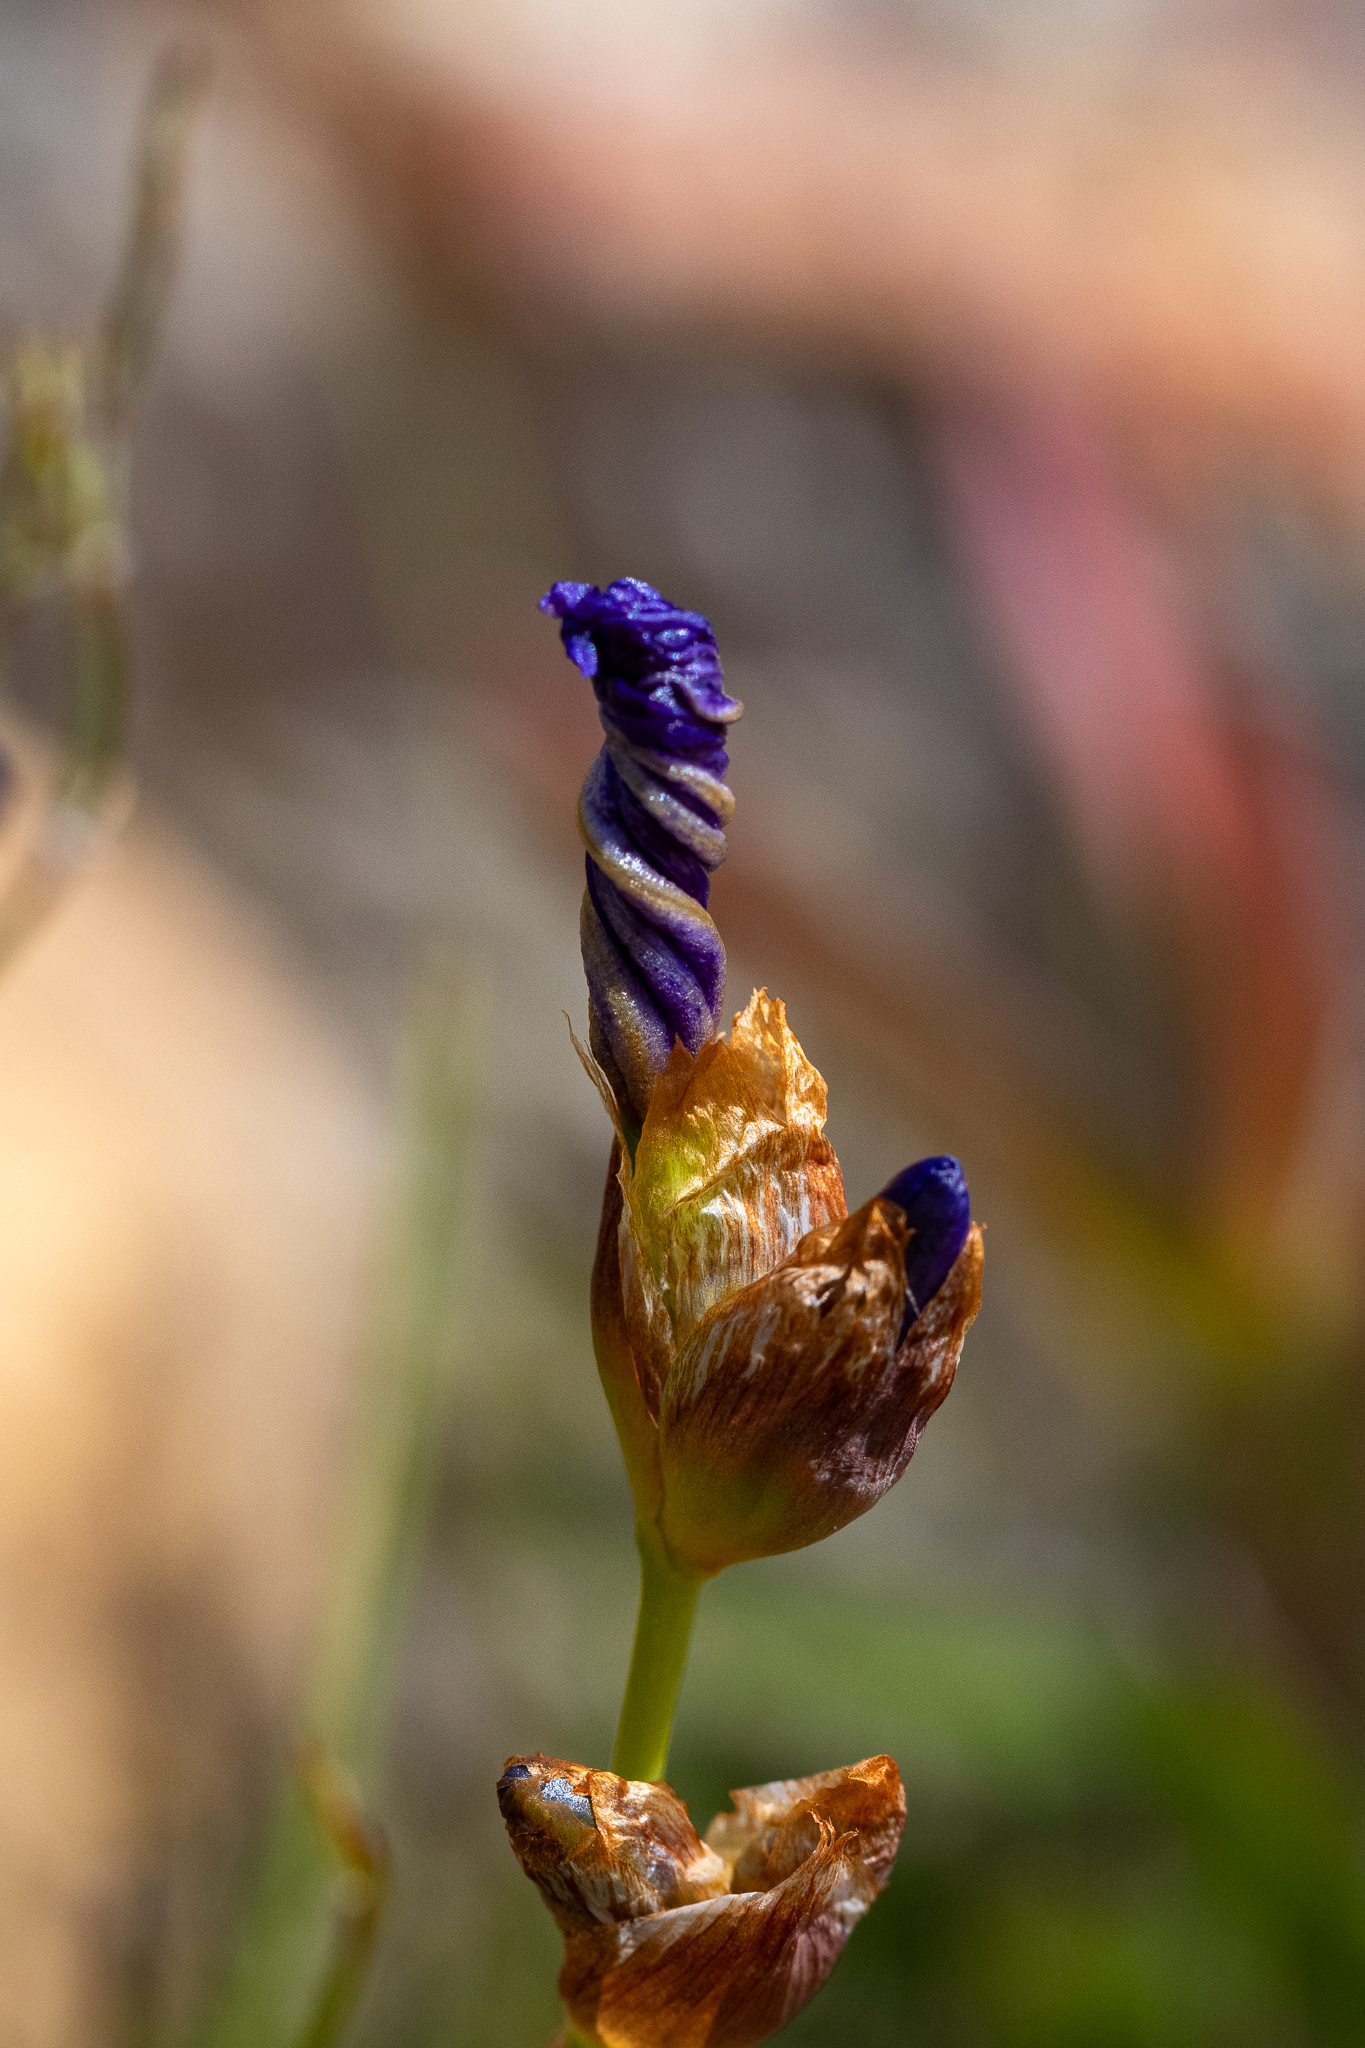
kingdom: Plantae
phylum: Tracheophyta
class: Liliopsida
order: Asparagales
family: Iridaceae
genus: Aristea
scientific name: Aristea juncifolia
